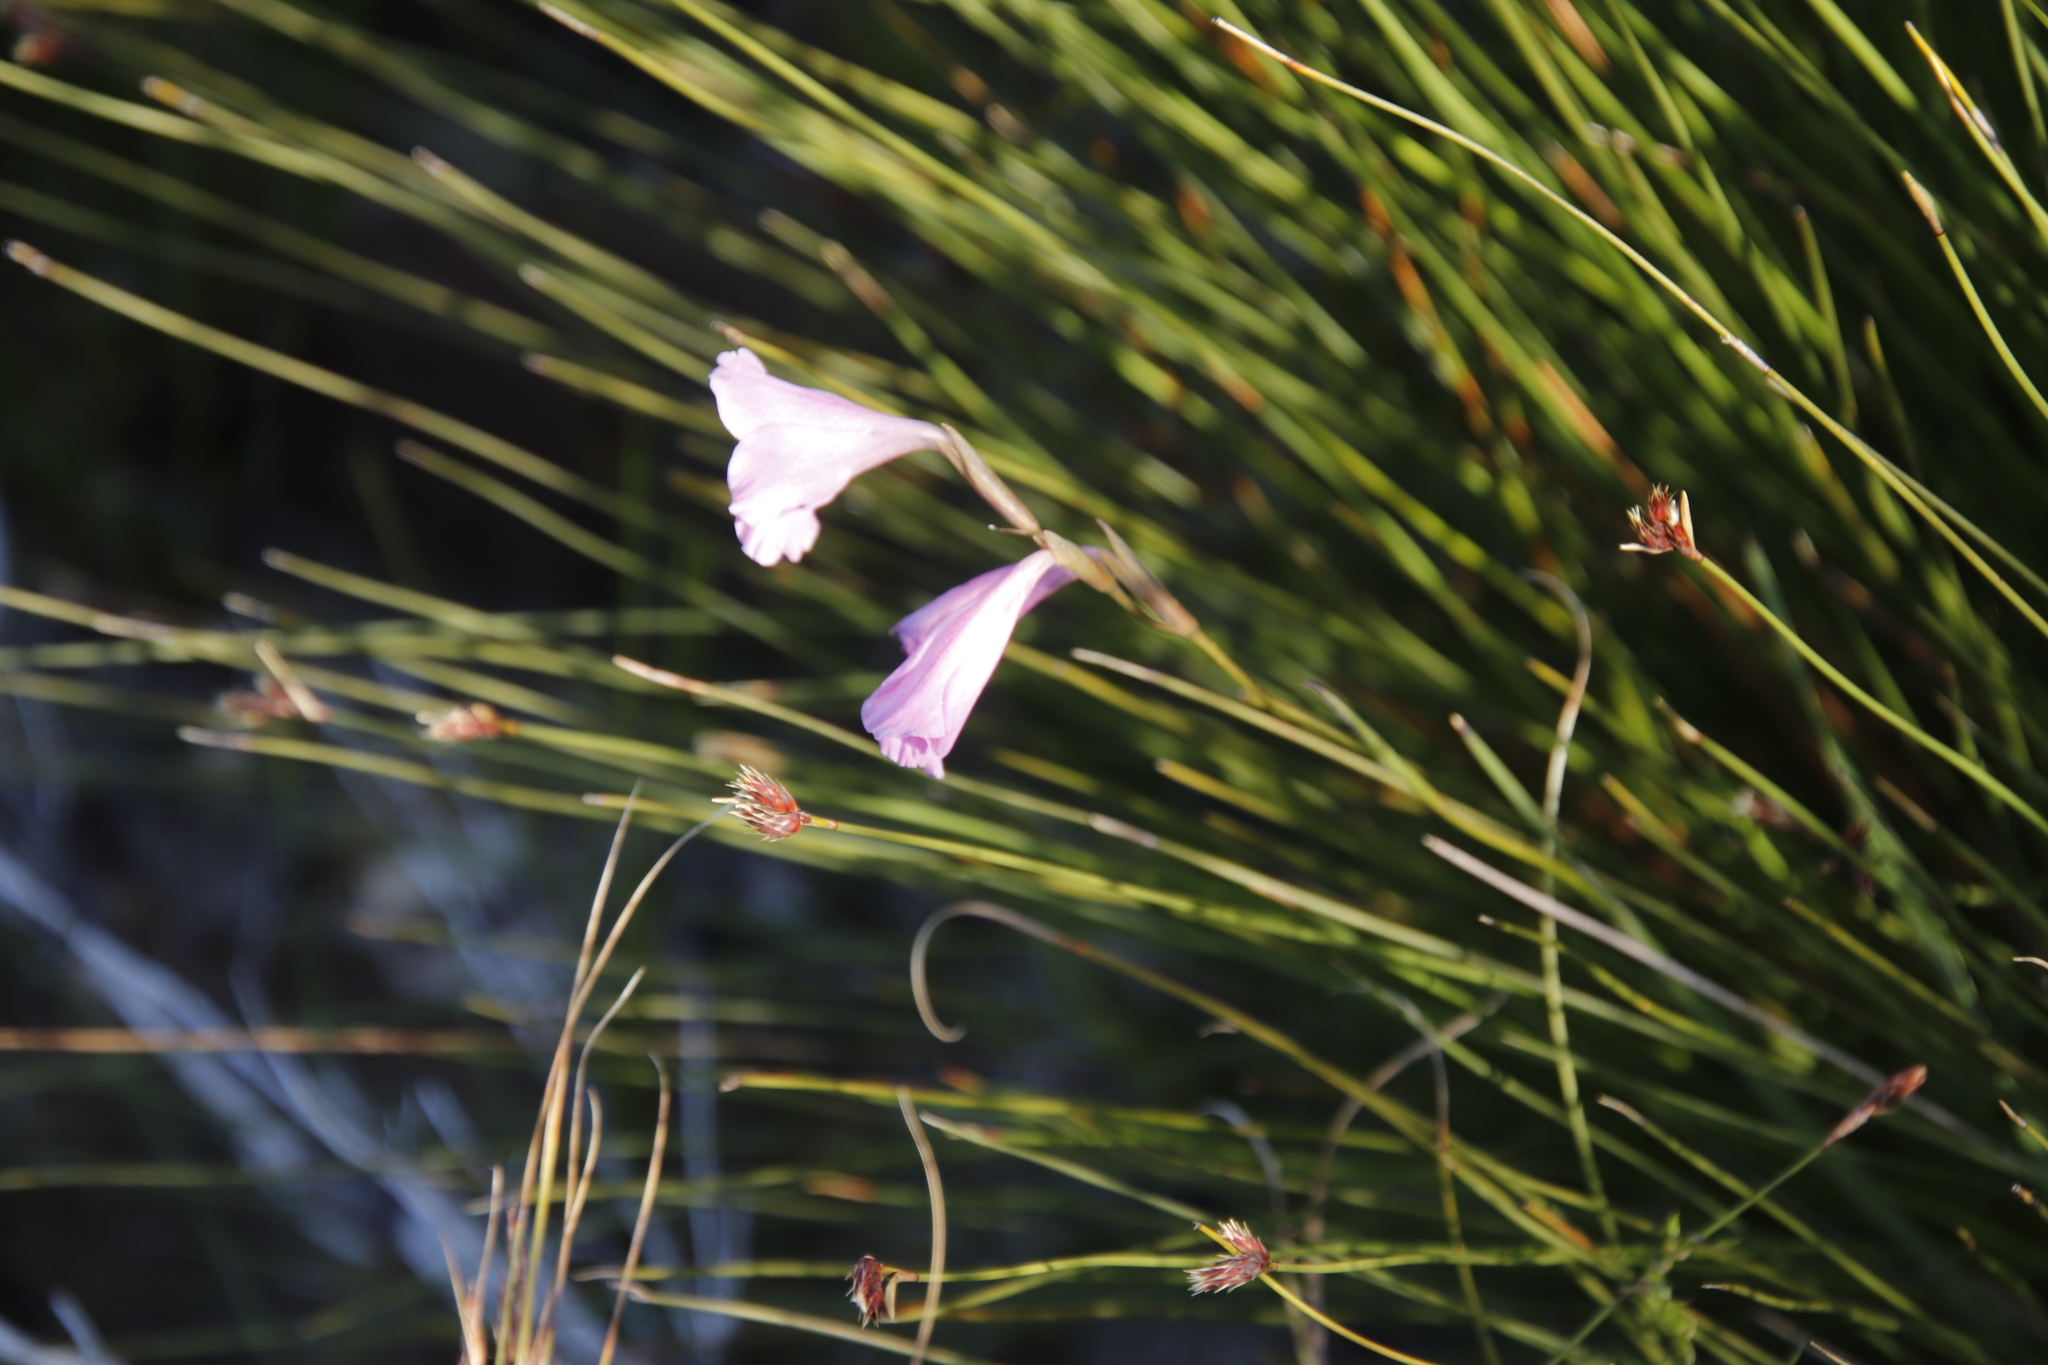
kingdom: Plantae
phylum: Tracheophyta
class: Liliopsida
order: Asparagales
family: Iridaceae
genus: Gladiolus
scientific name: Gladiolus hirsutus
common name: Small pink afrikaner
